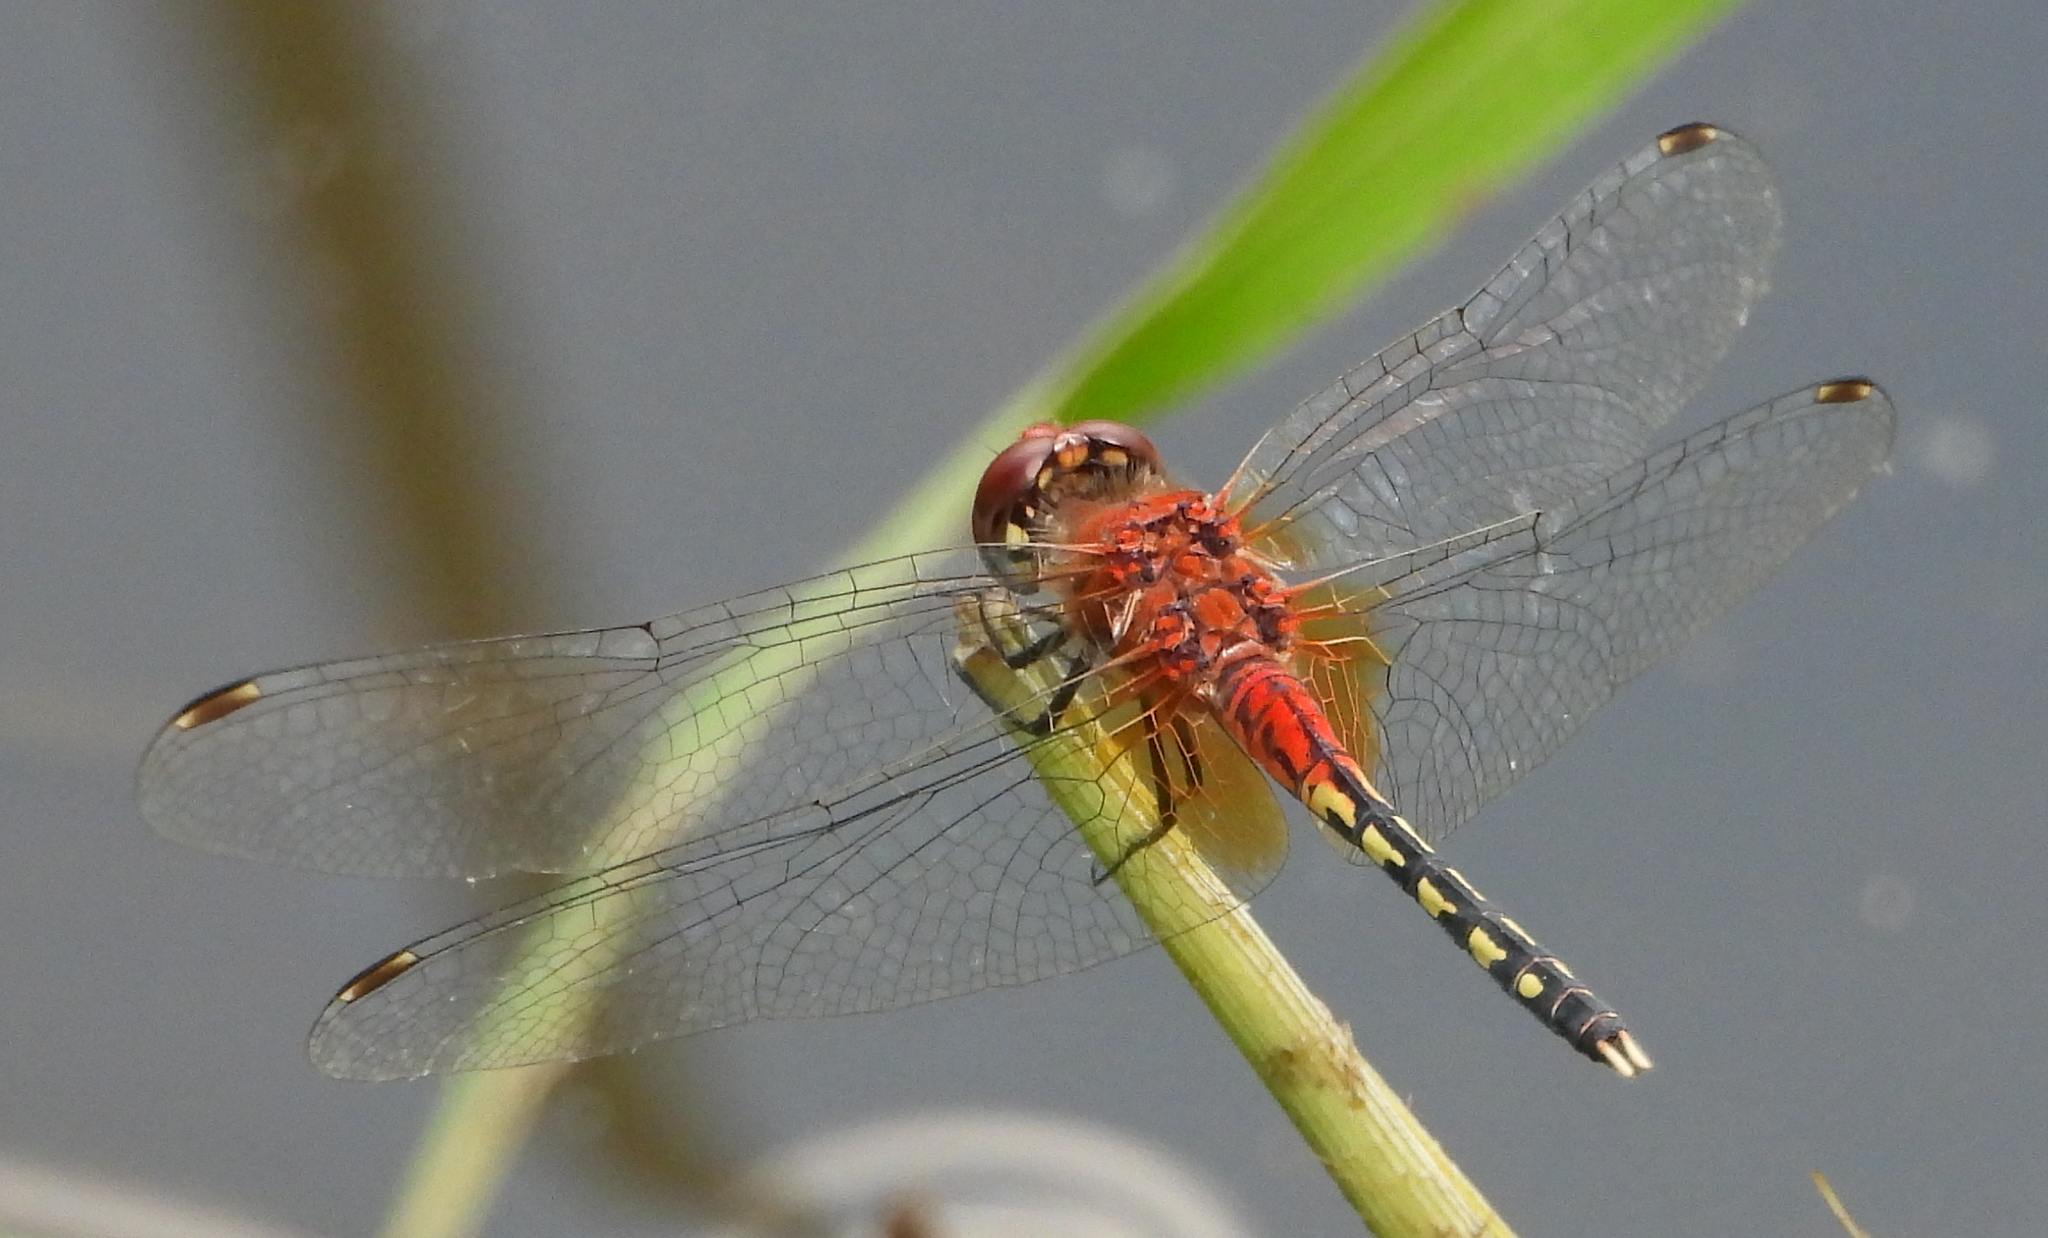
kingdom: Animalia
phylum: Arthropoda
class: Insecta
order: Odonata
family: Libellulidae
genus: Diplacodes
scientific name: Diplacodes luminans
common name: Barbet percher
